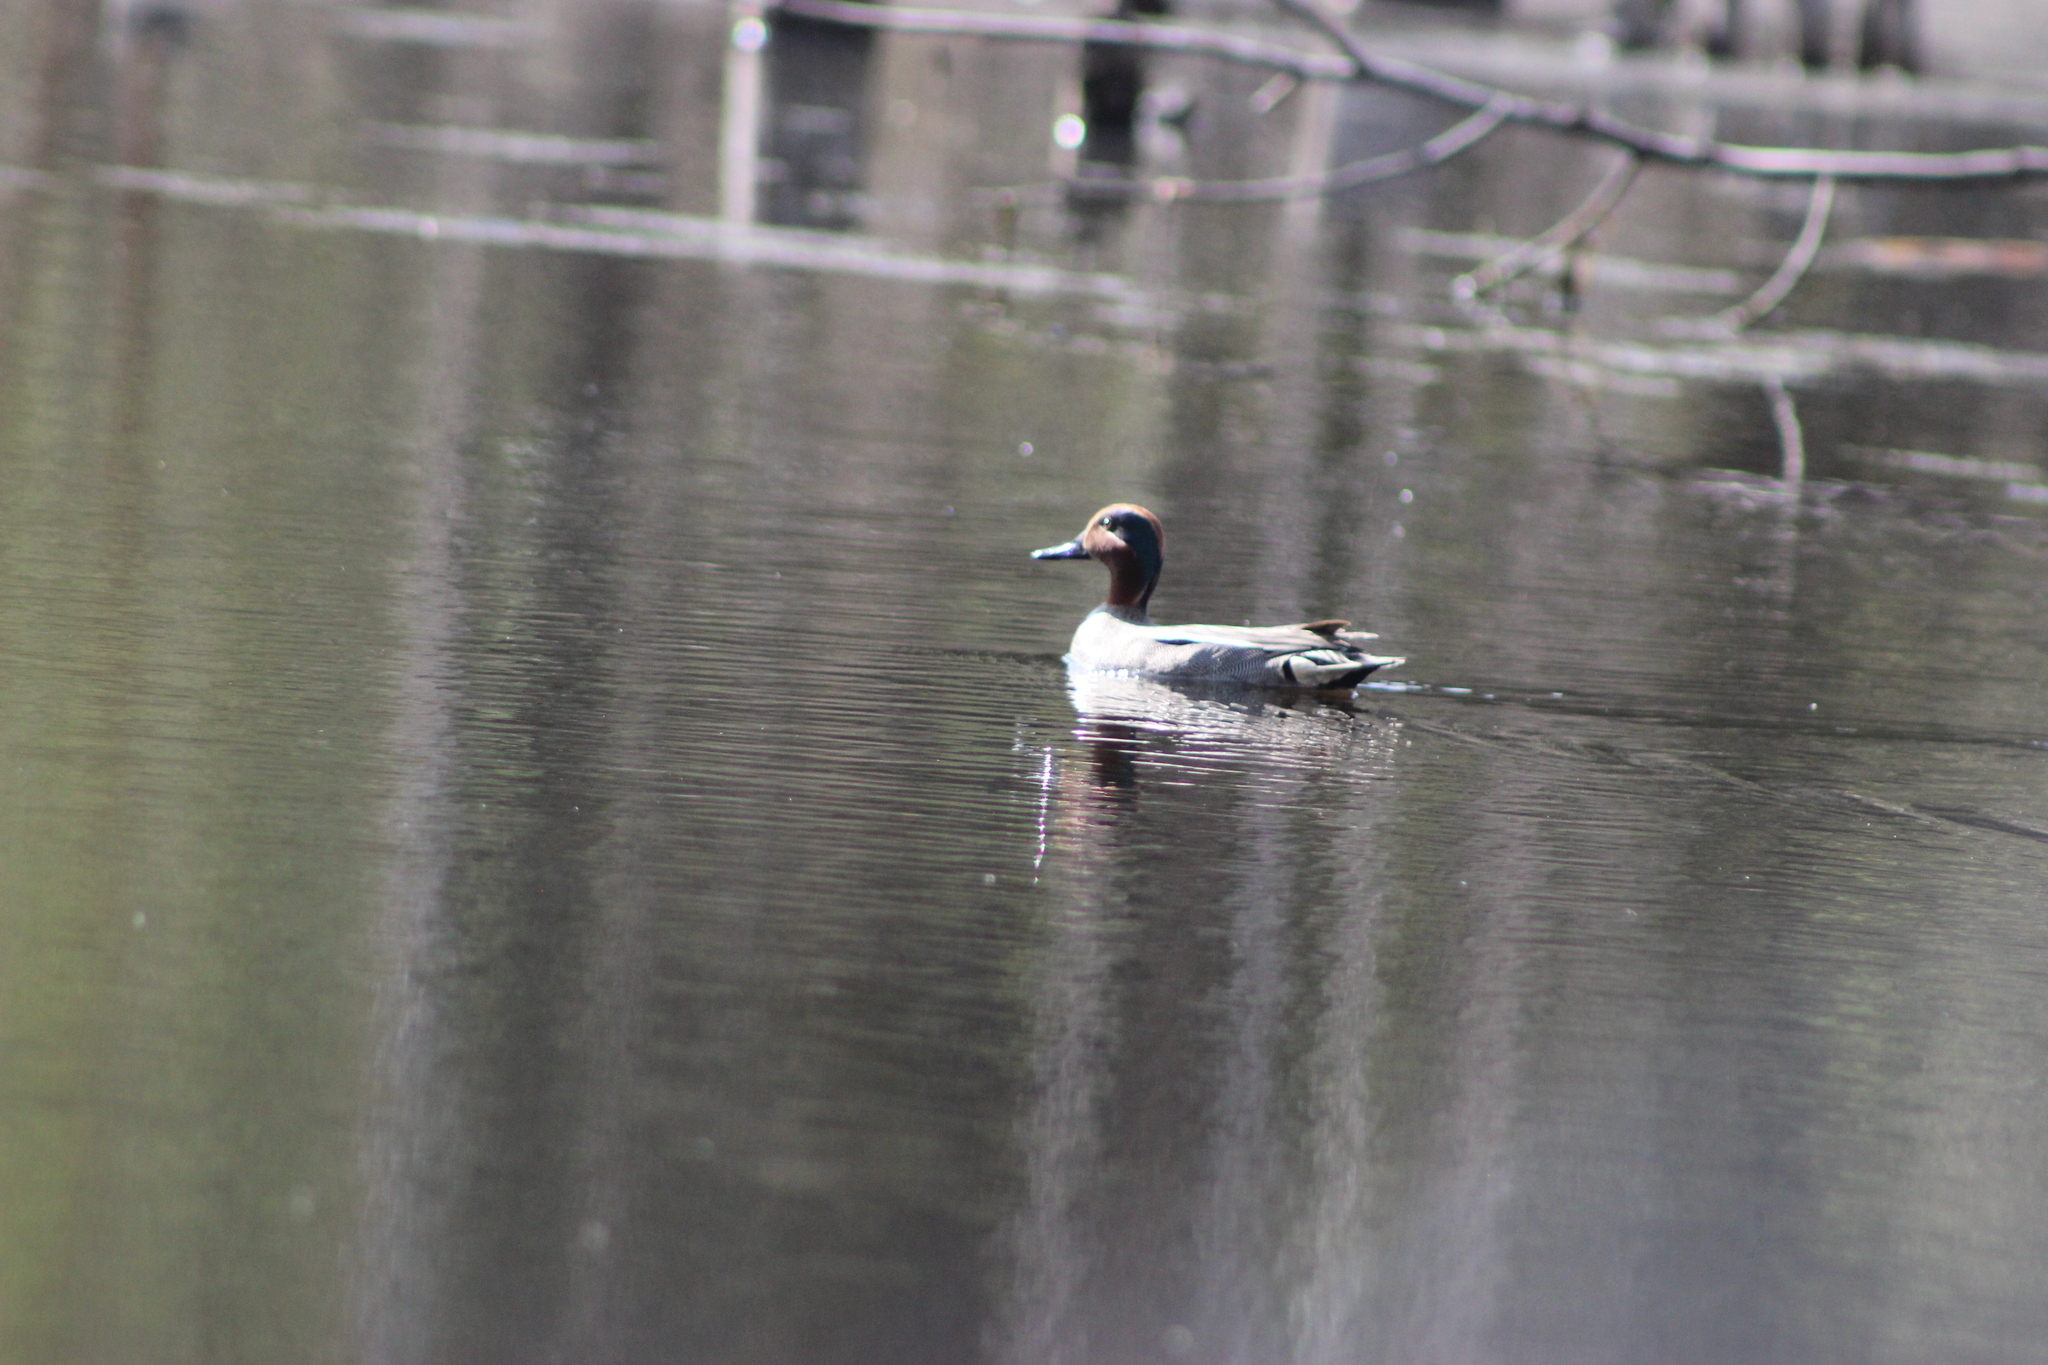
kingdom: Animalia
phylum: Chordata
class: Aves
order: Anseriformes
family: Anatidae
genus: Anas
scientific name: Anas crecca
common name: Eurasian teal
